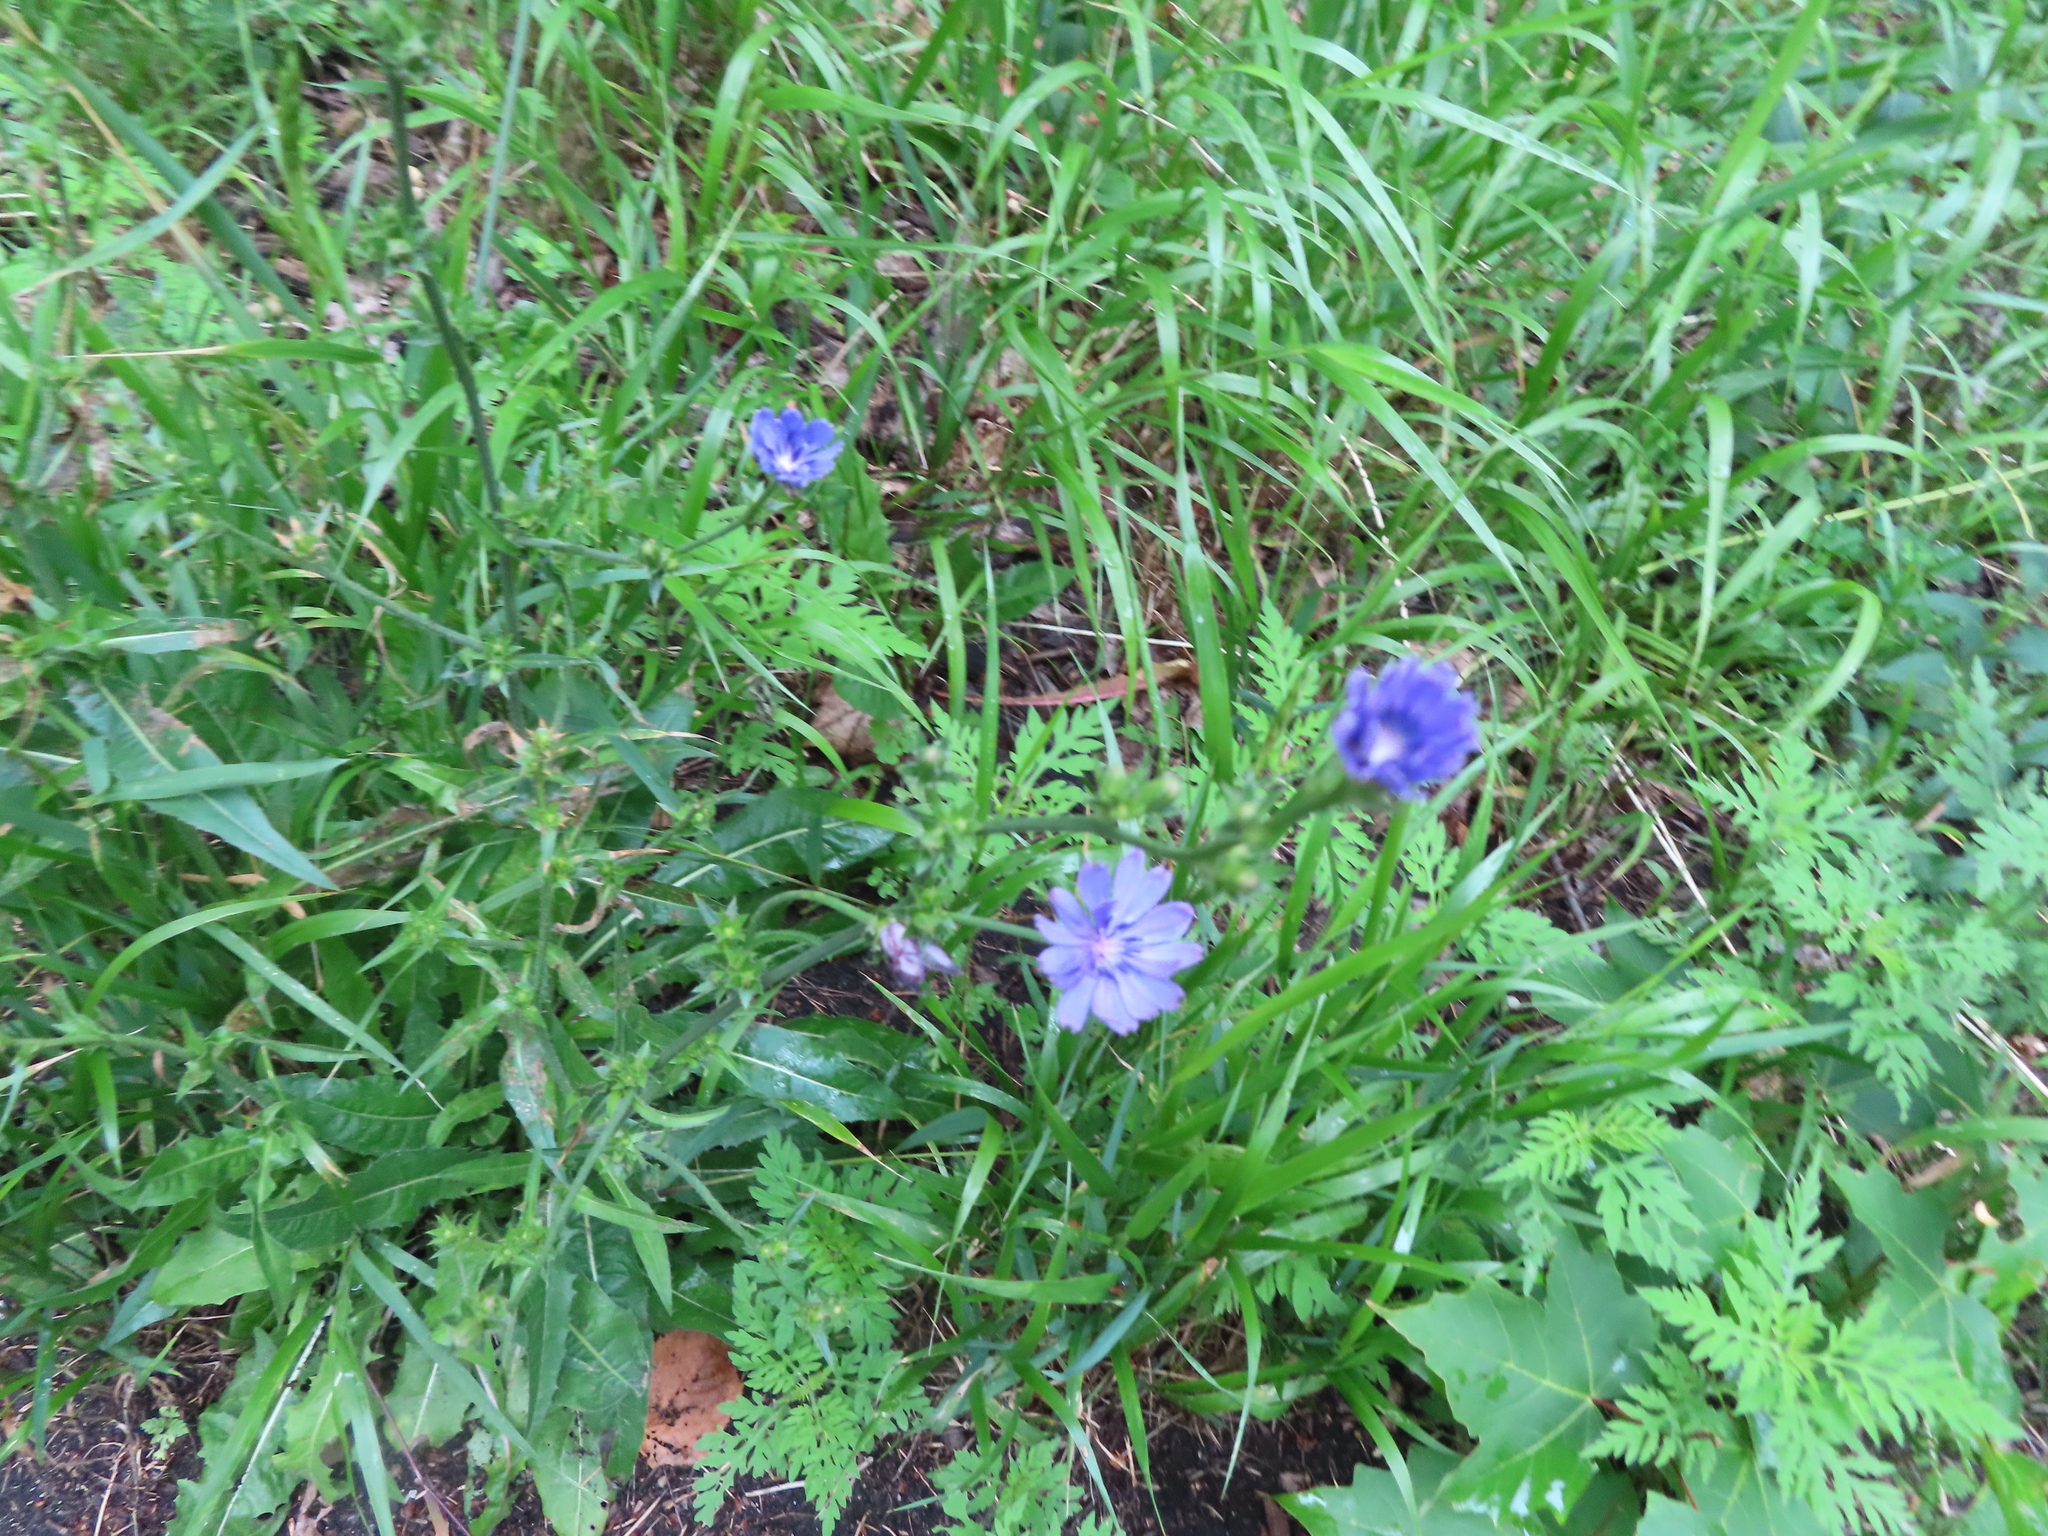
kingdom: Plantae
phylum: Tracheophyta
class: Magnoliopsida
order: Asterales
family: Asteraceae
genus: Cichorium
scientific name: Cichorium intybus
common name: Chicory
